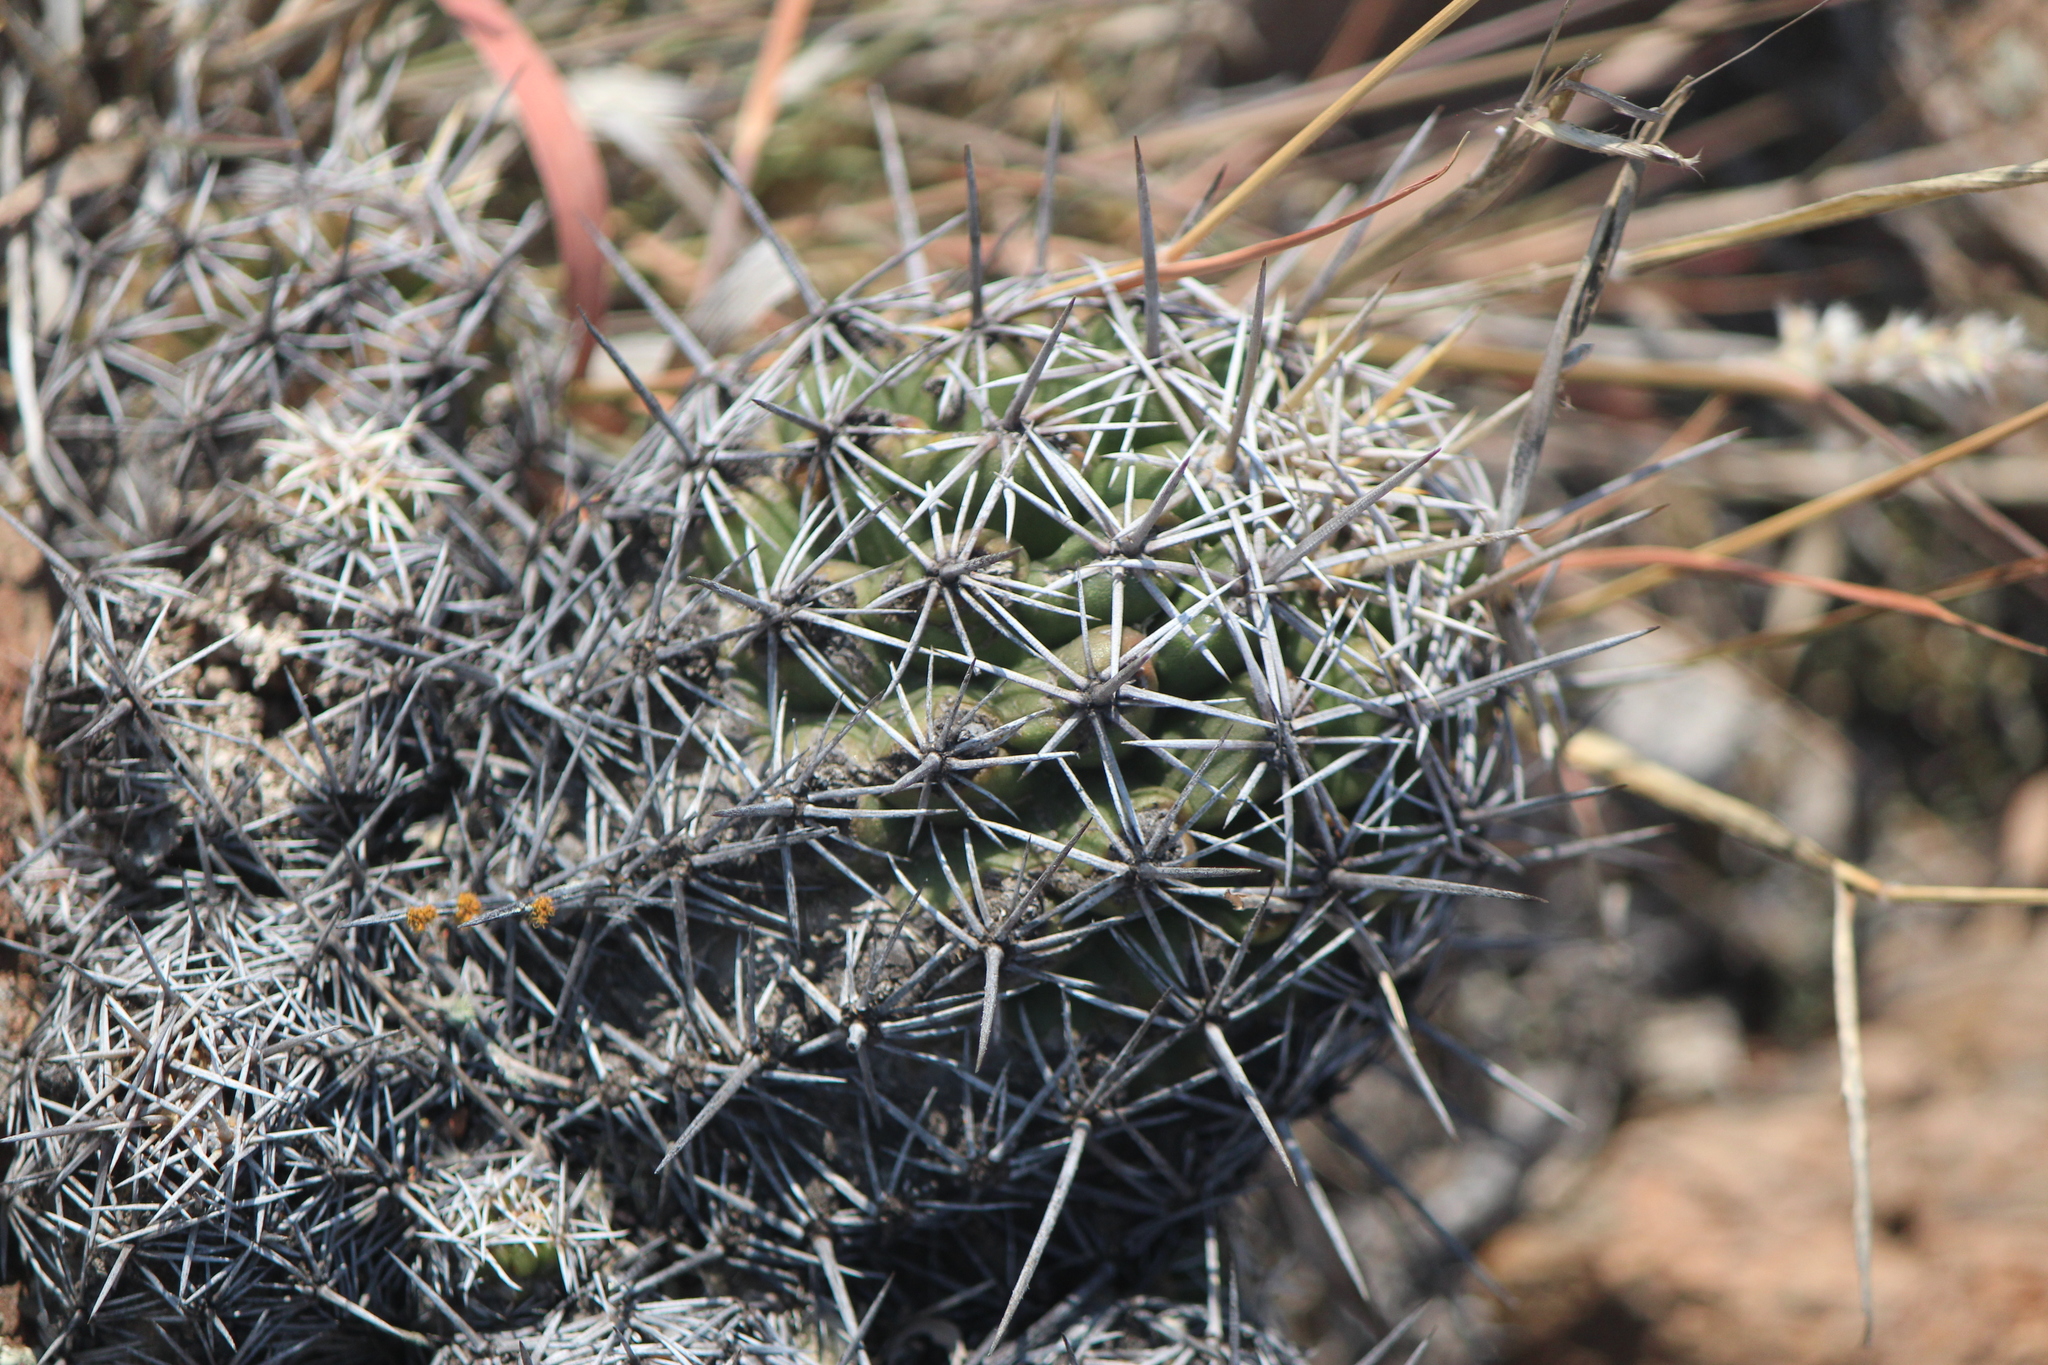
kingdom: Plantae
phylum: Tracheophyta
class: Magnoliopsida
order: Caryophyllales
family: Cactaceae
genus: Thelocactus
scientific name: Thelocactus leucacanthus
